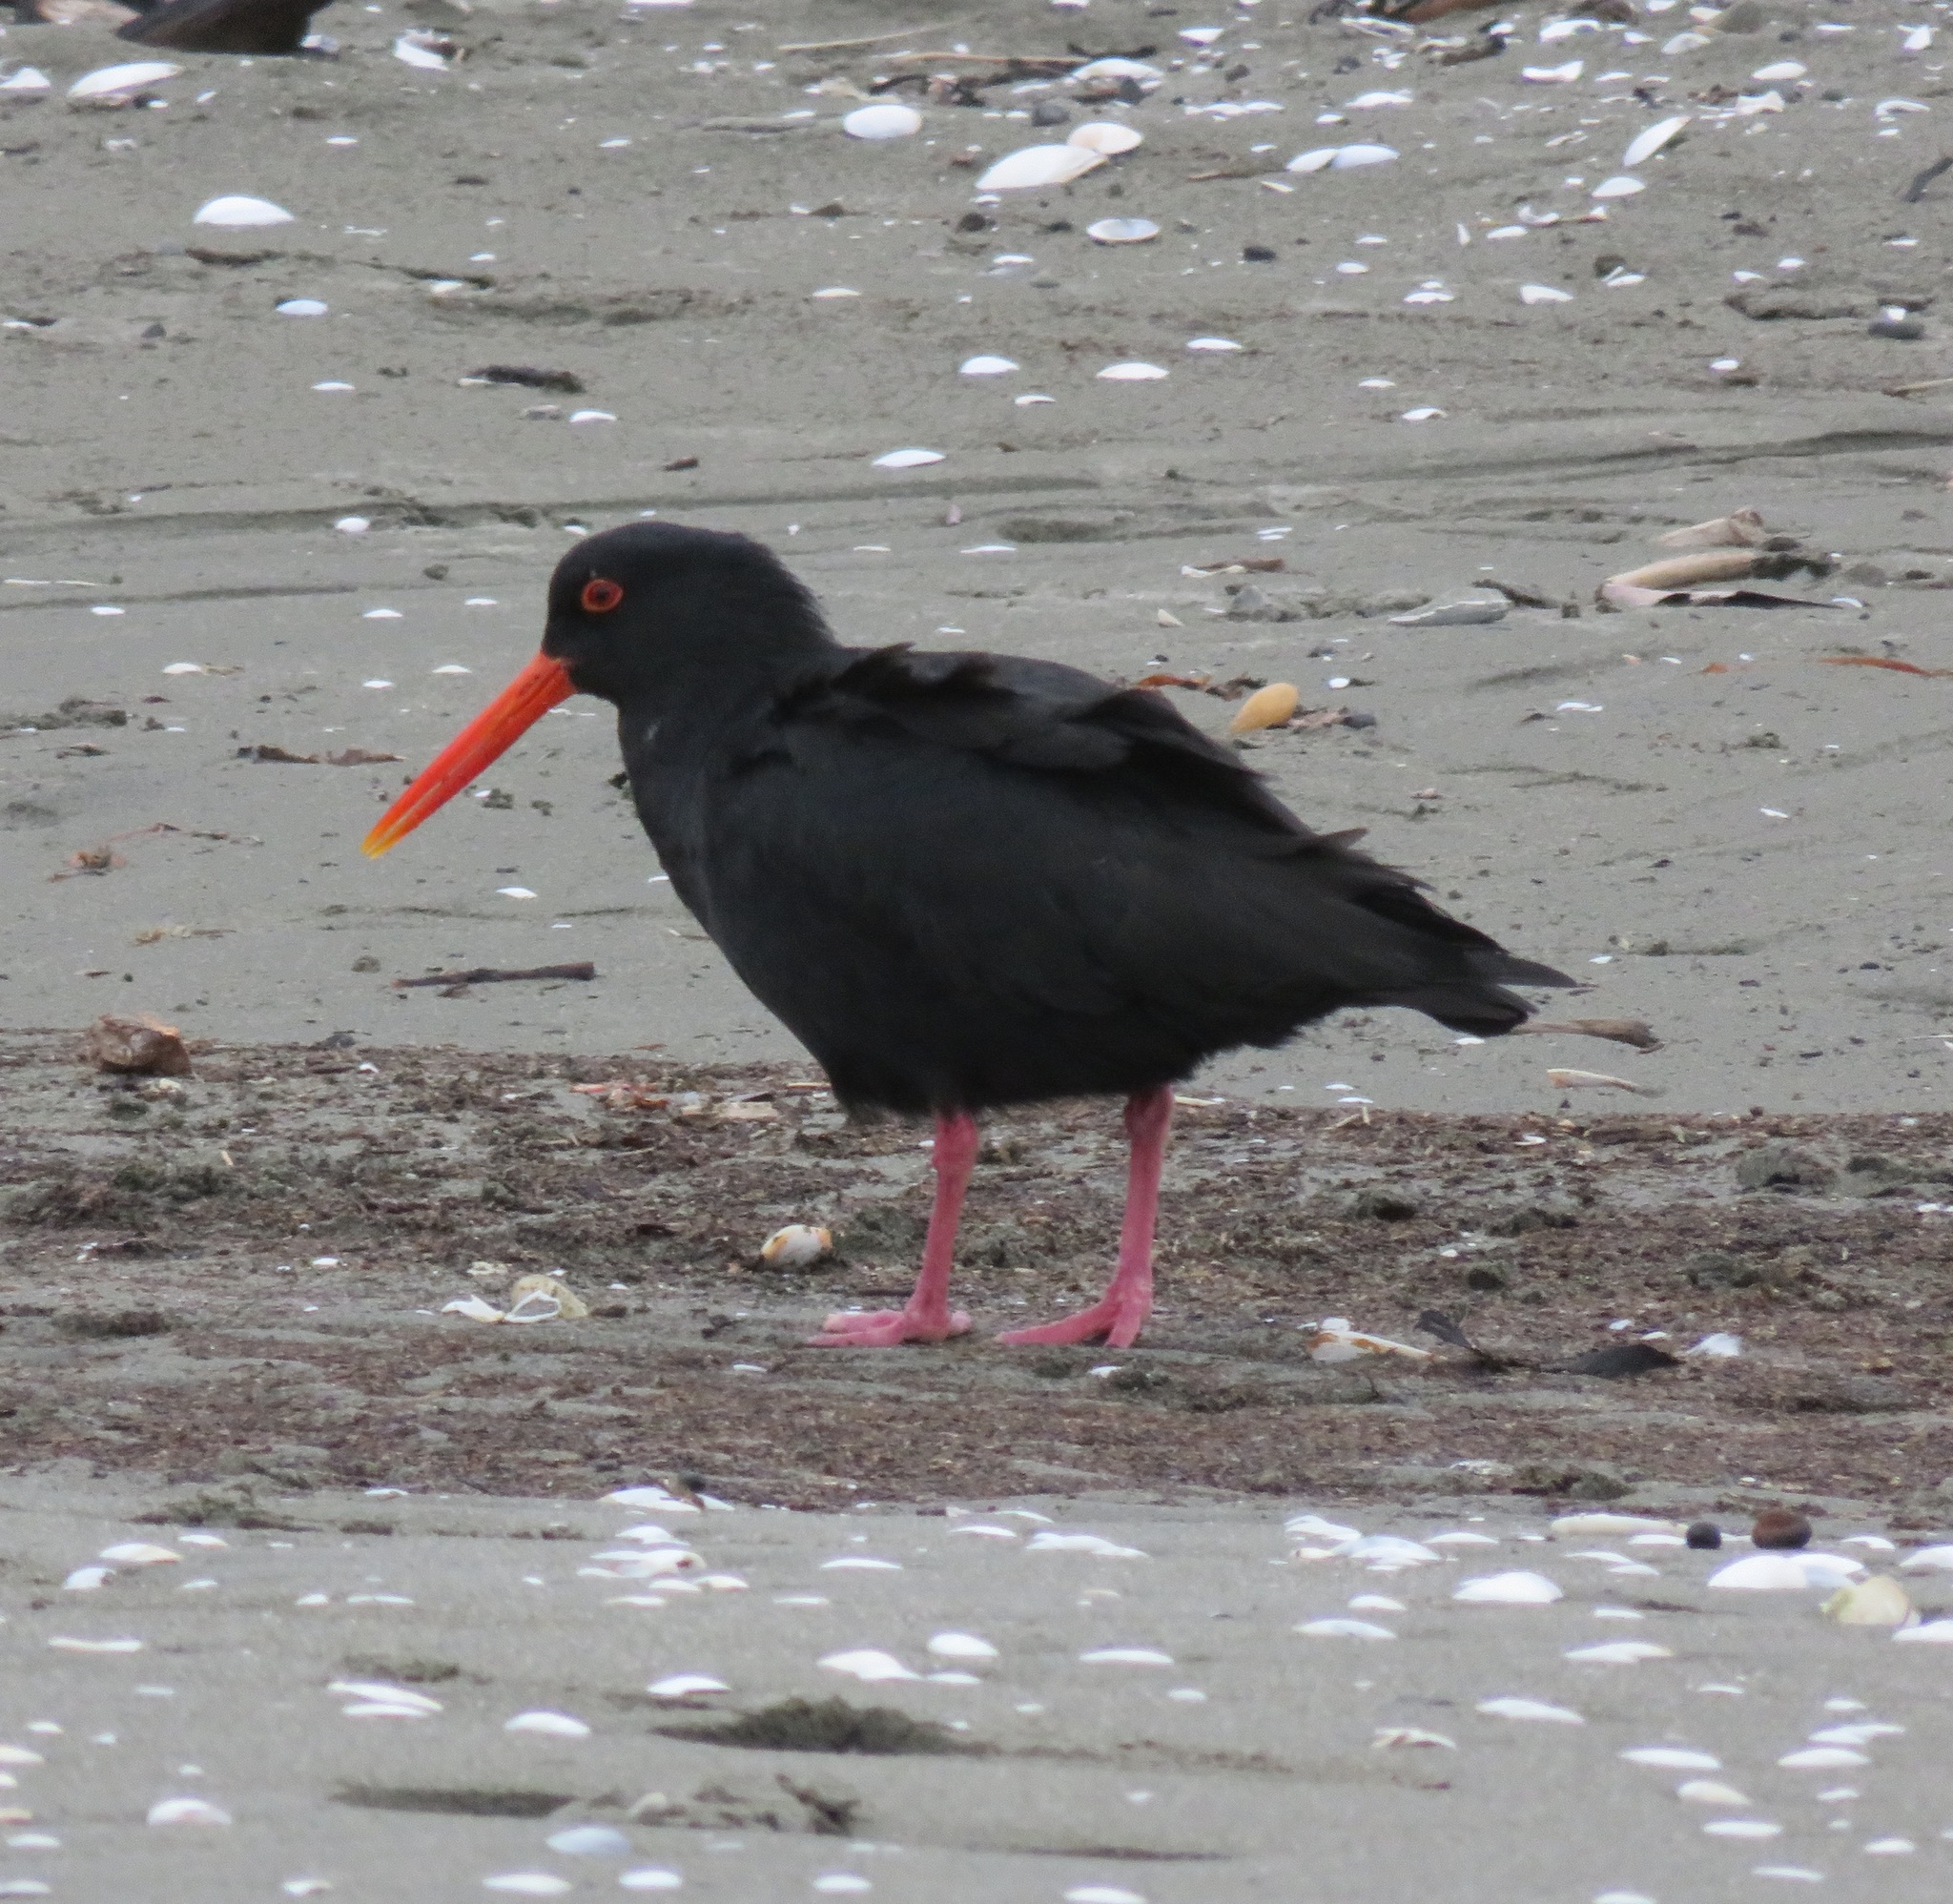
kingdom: Animalia
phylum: Chordata
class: Aves
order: Charadriiformes
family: Haematopodidae
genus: Haematopus
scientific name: Haematopus unicolor
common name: Variable oystercatcher
